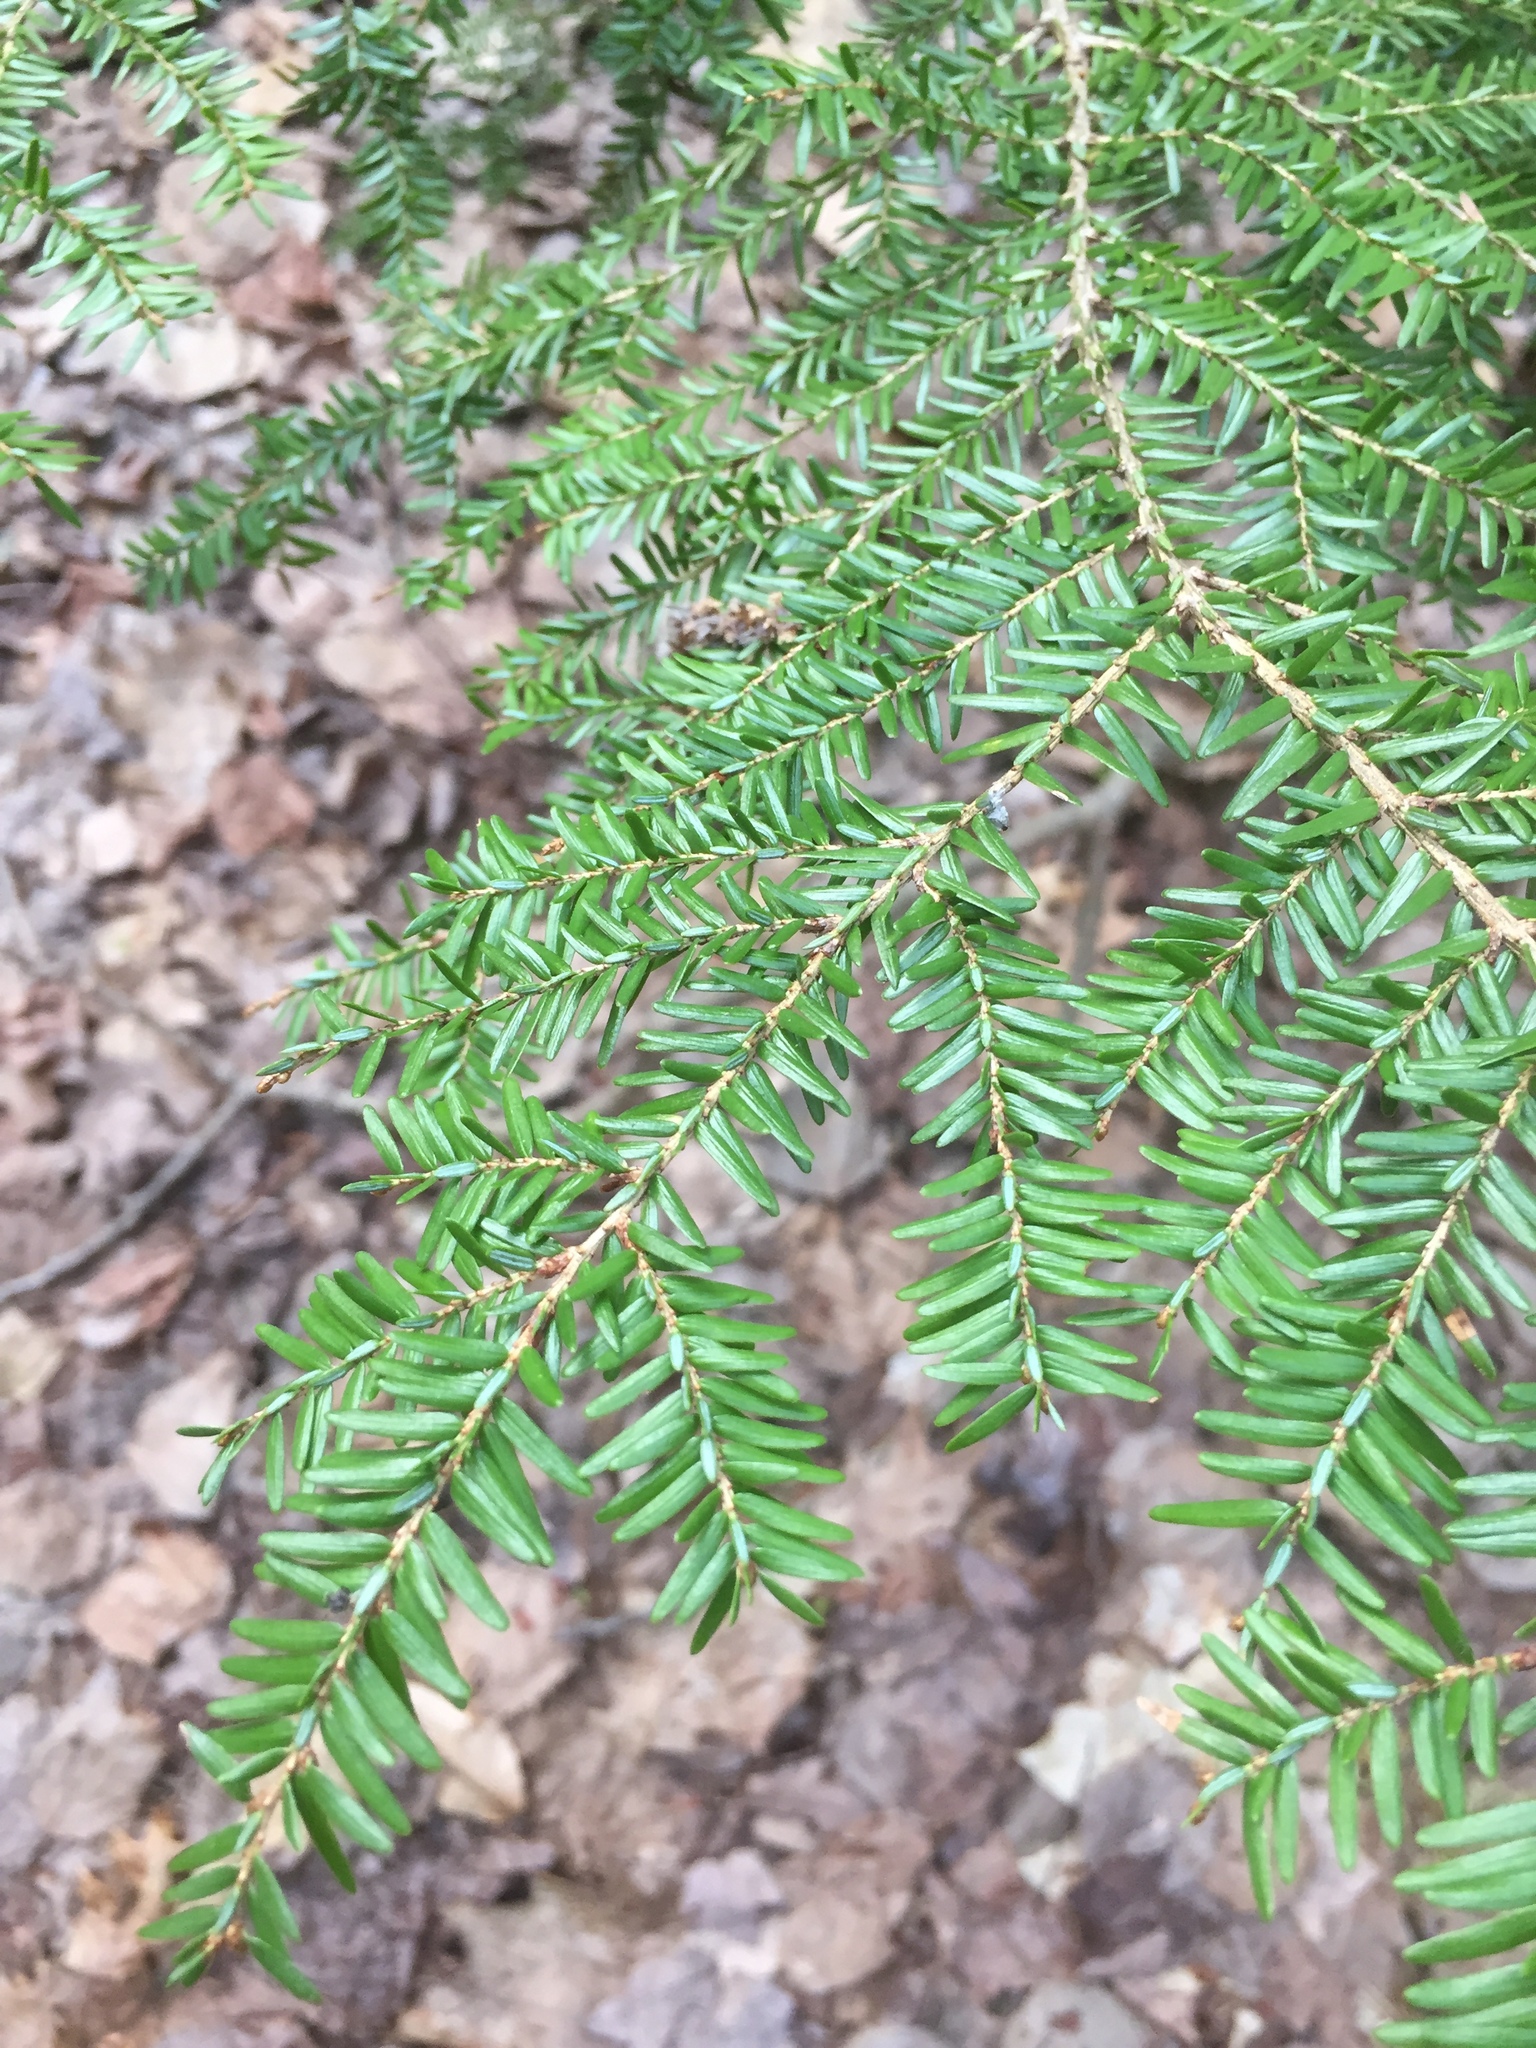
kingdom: Plantae
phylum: Tracheophyta
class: Pinopsida
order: Pinales
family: Pinaceae
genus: Tsuga
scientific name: Tsuga canadensis
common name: Eastern hemlock
